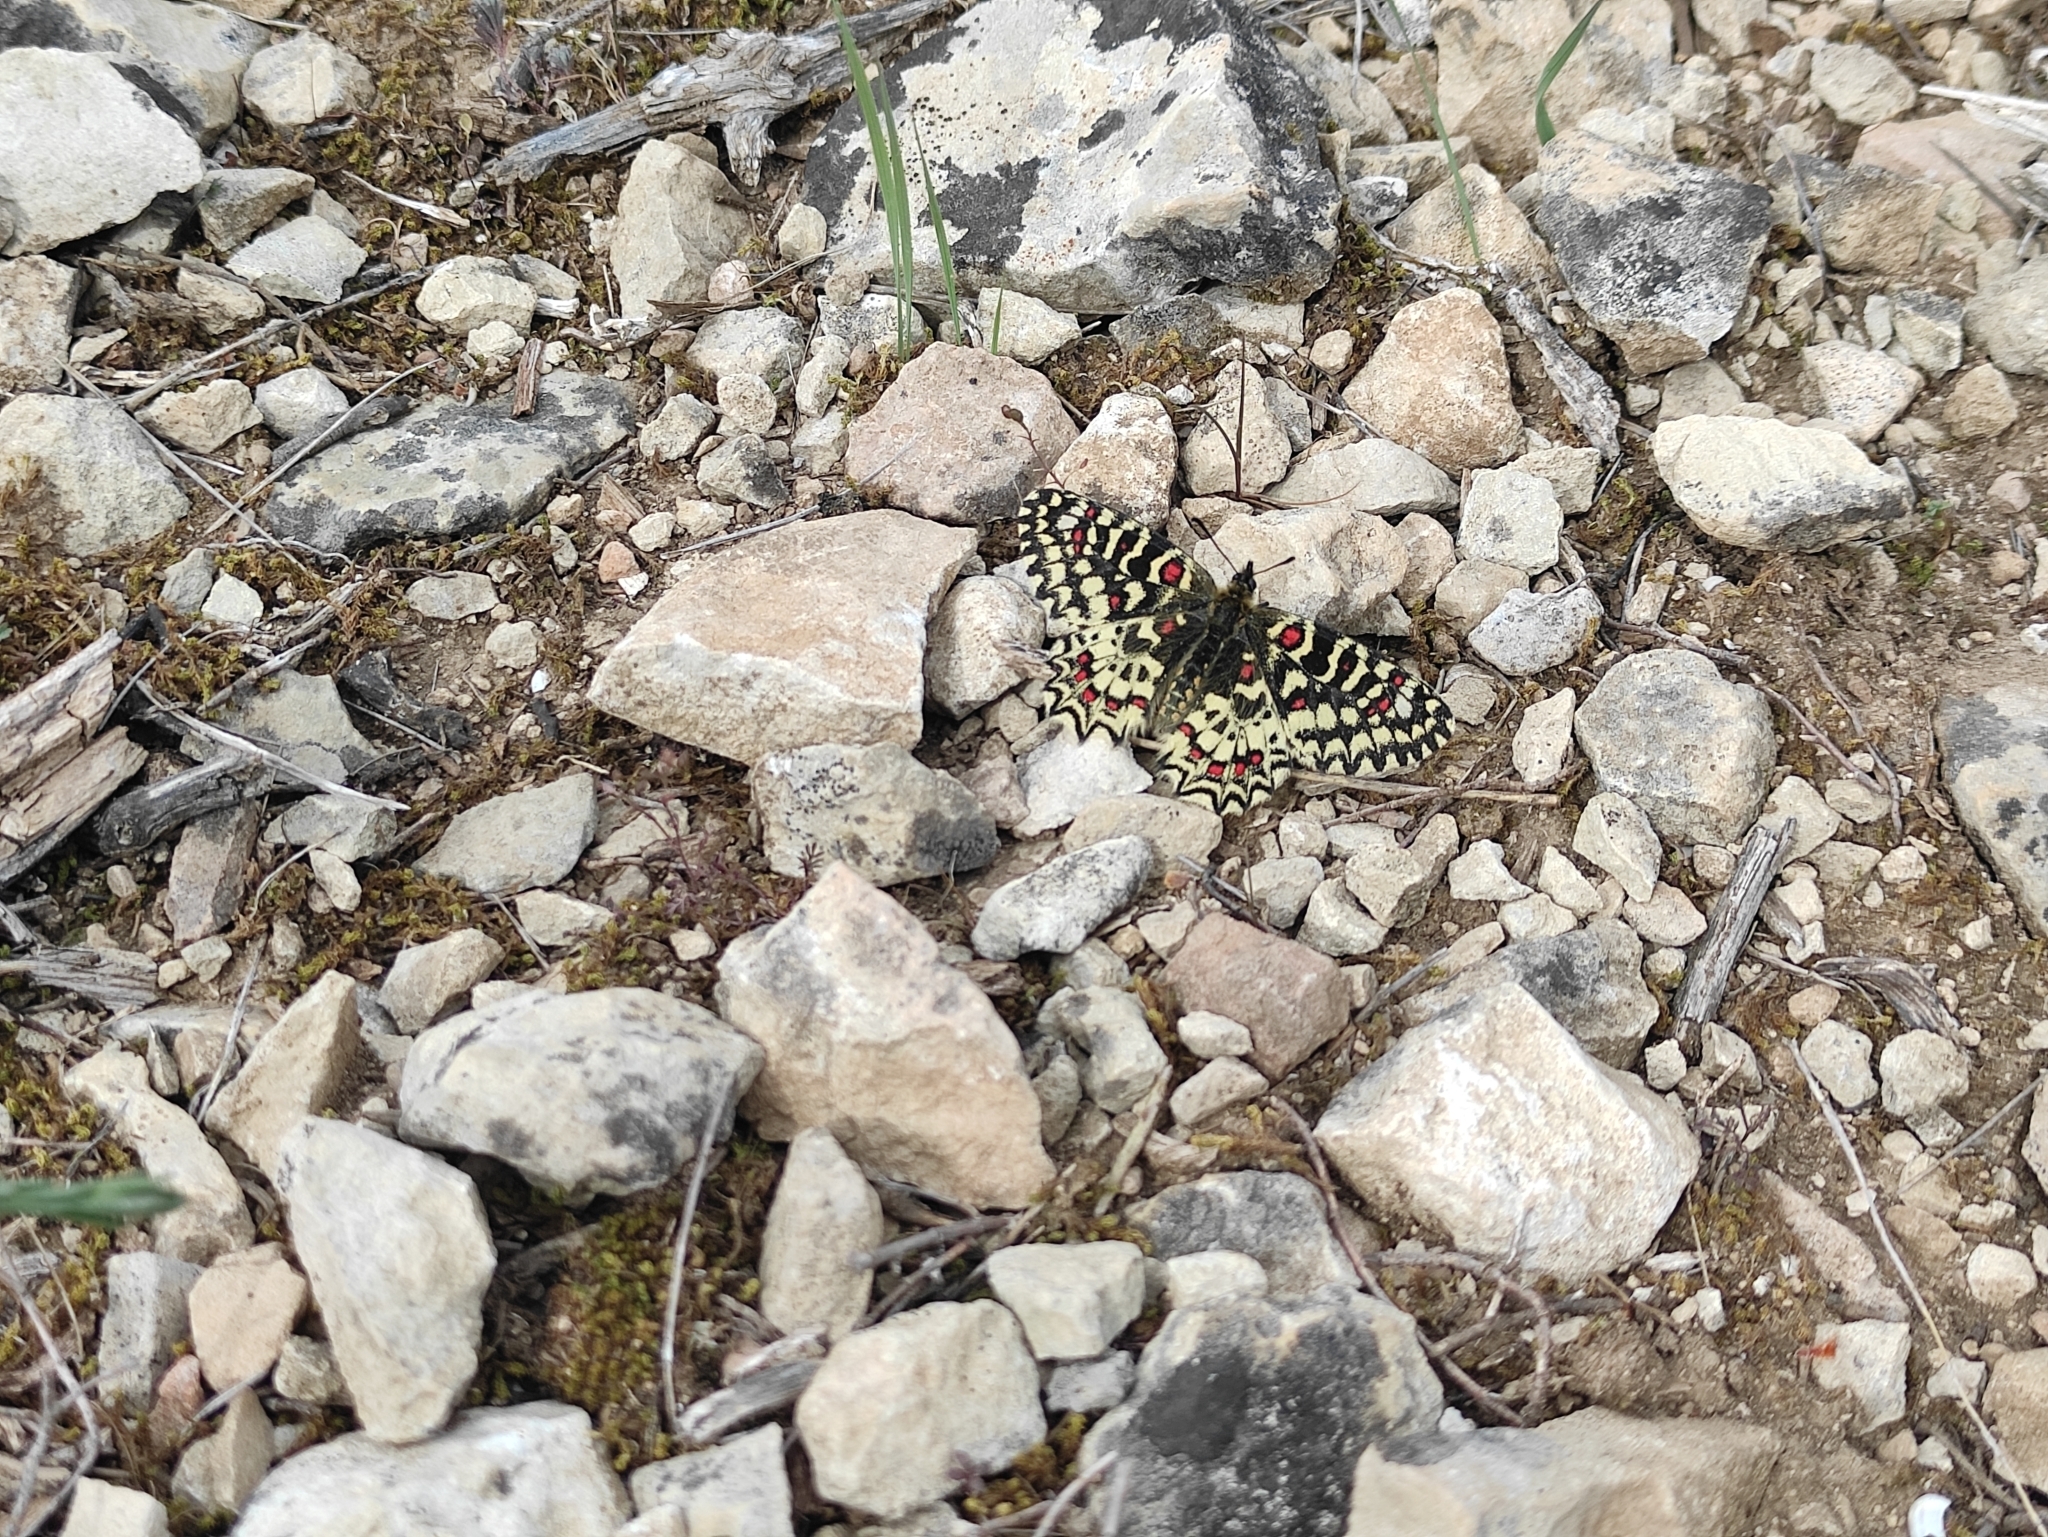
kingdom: Animalia
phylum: Arthropoda
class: Insecta
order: Lepidoptera
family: Papilionidae
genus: Zerynthia
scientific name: Zerynthia rumina
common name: Spanish festoon
